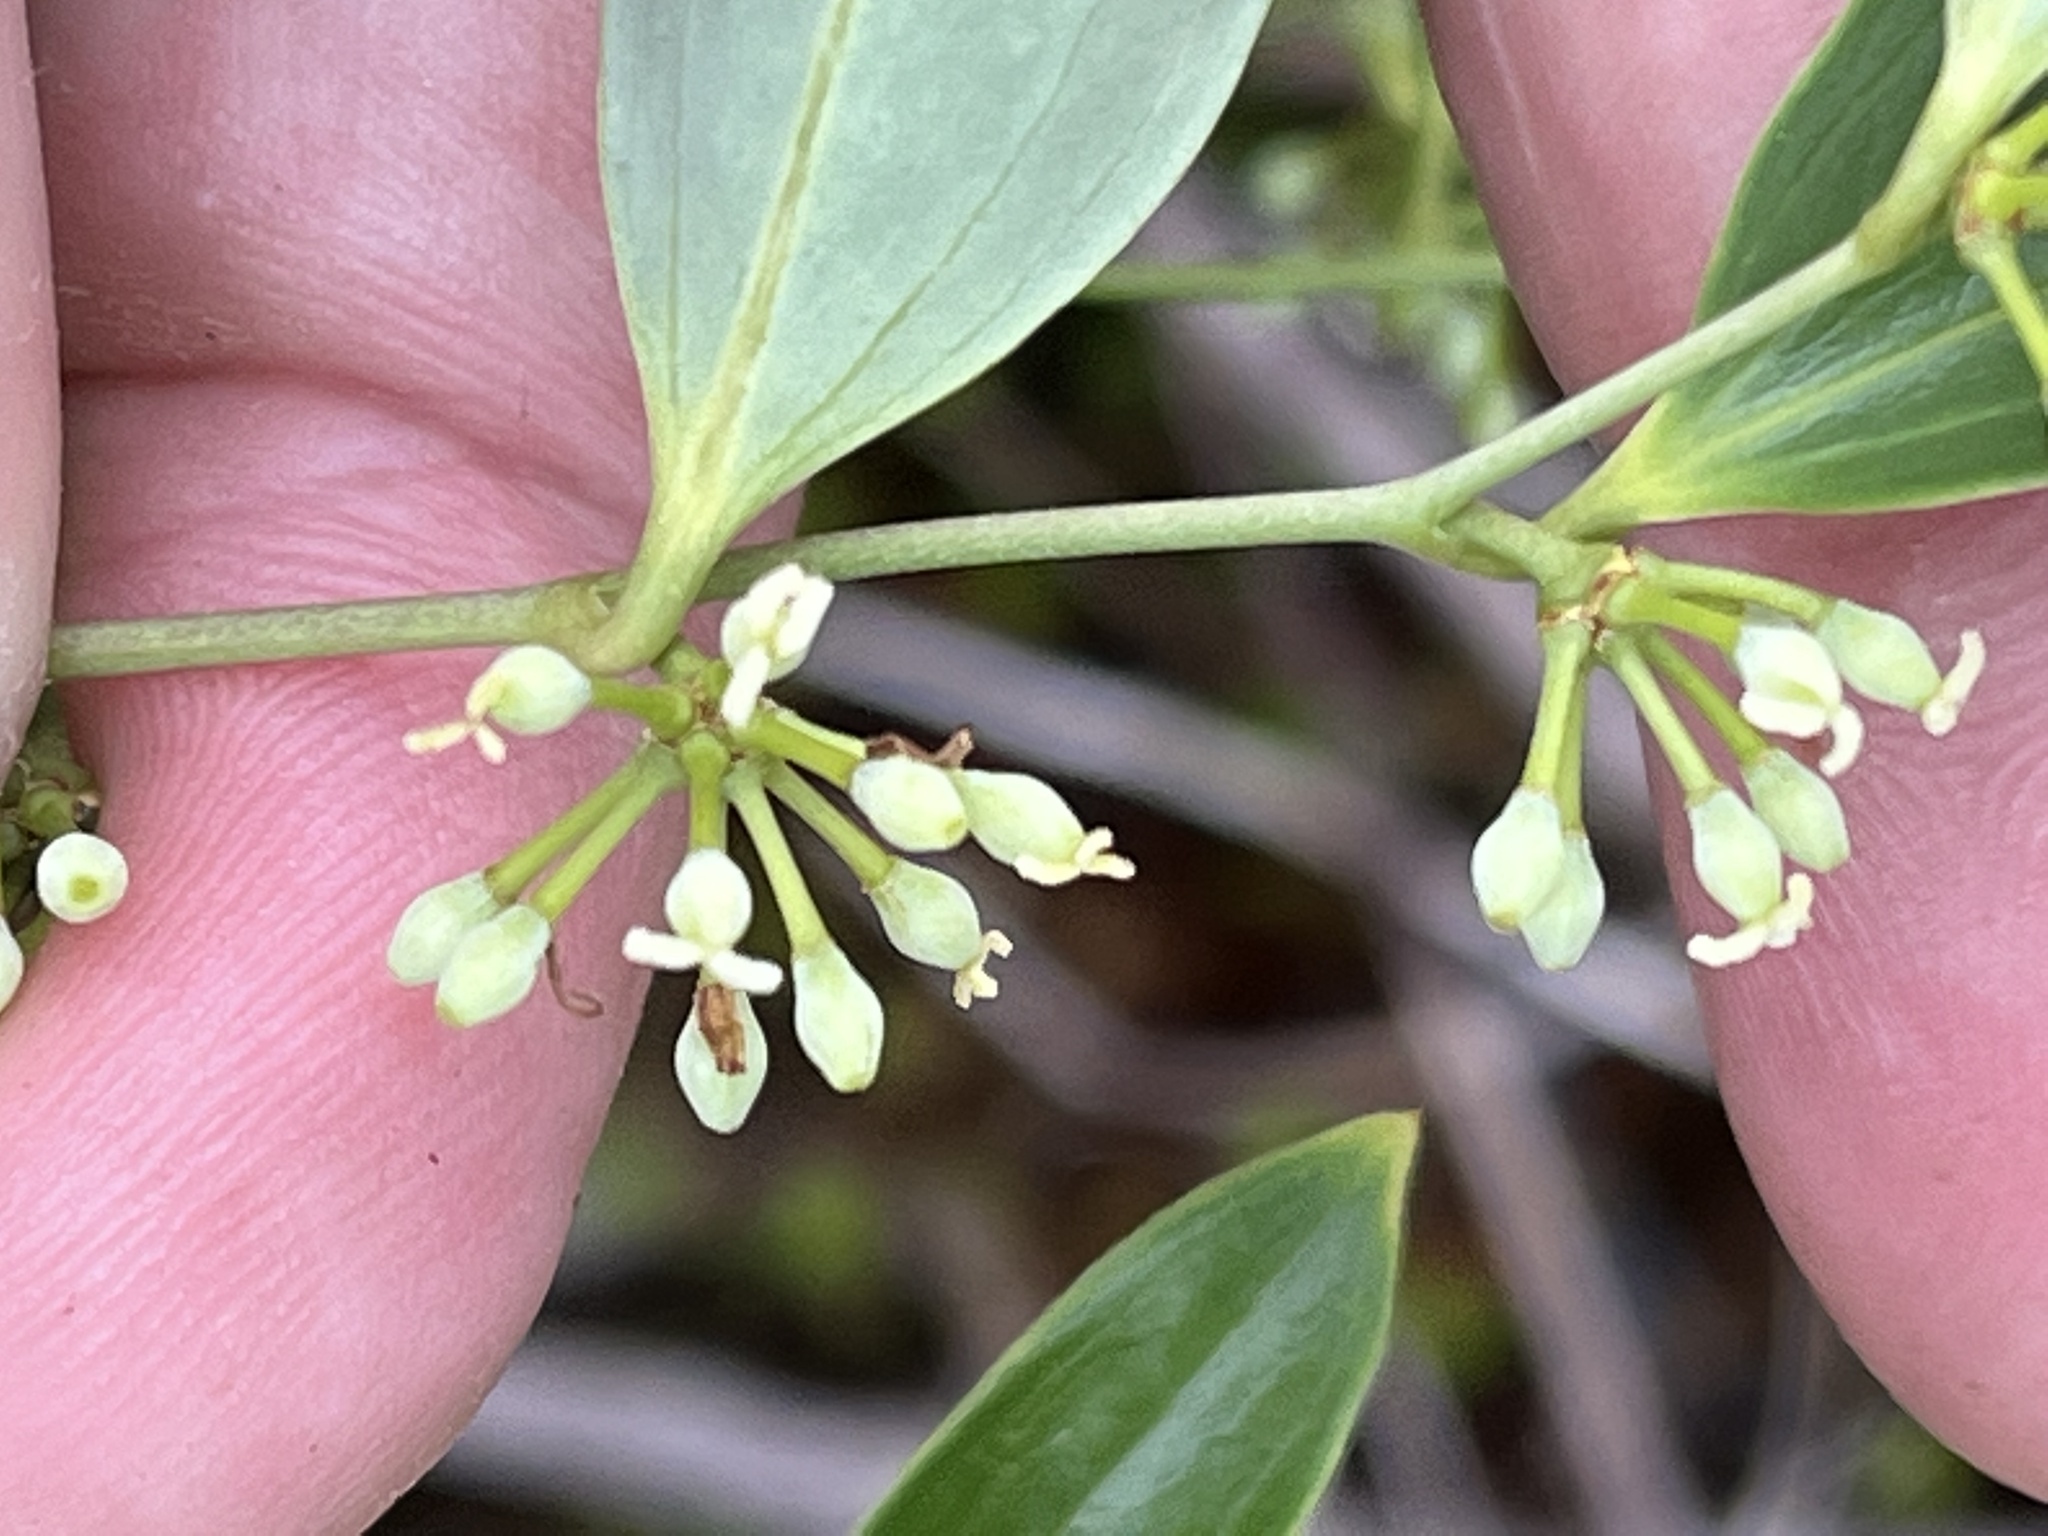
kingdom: Plantae
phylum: Tracheophyta
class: Liliopsida
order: Liliales
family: Smilacaceae
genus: Smilax
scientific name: Smilax maritima
